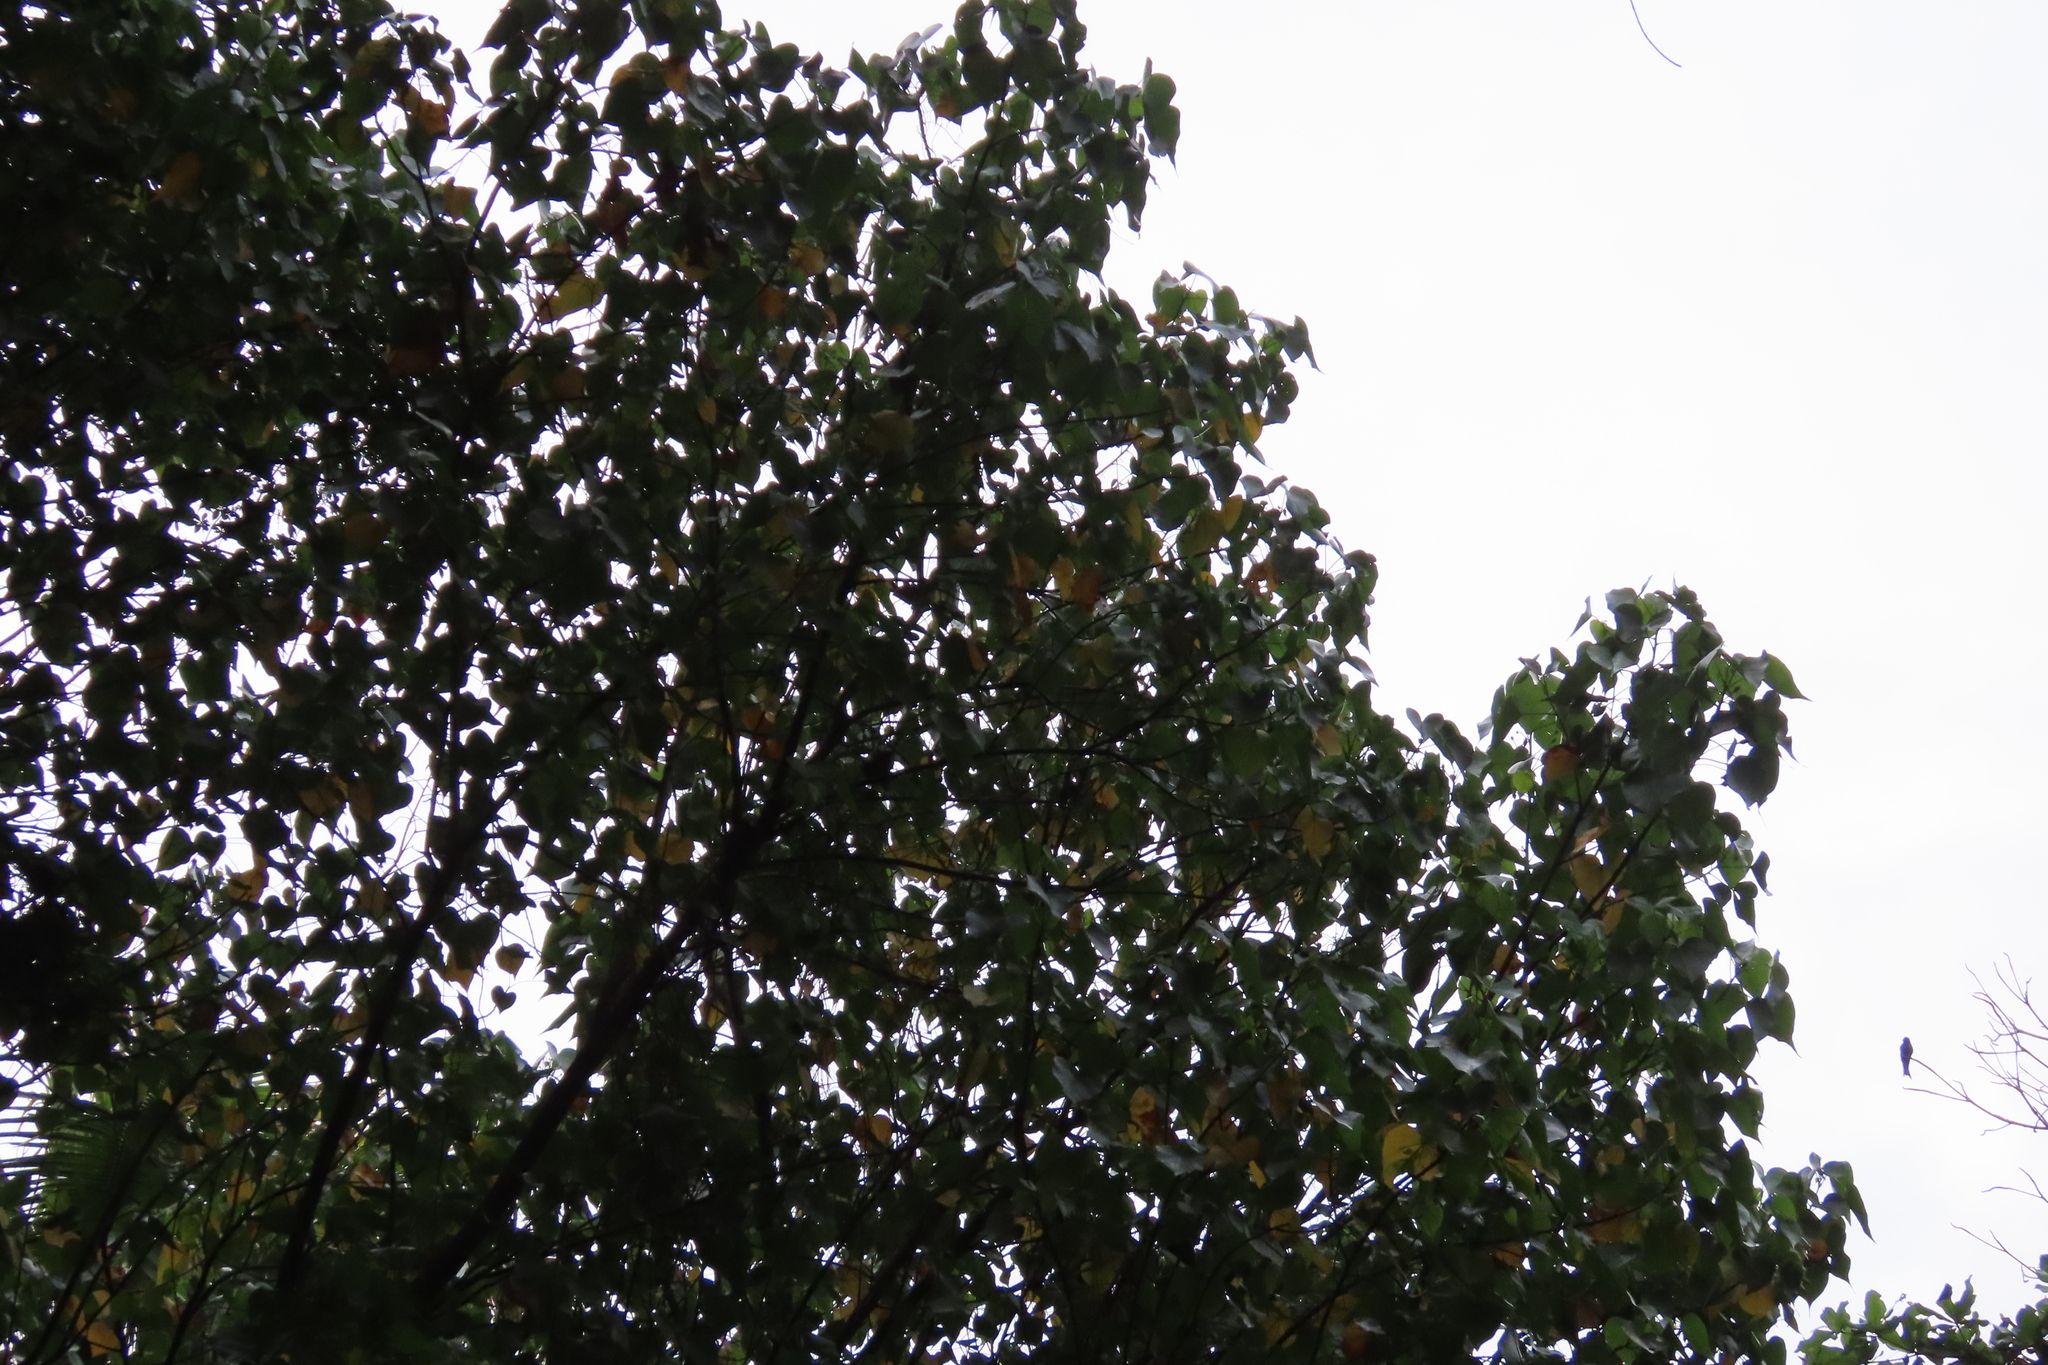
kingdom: Plantae
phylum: Tracheophyta
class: Magnoliopsida
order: Malvales
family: Malvaceae
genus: Thespesia
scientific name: Thespesia populnea
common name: Seaside mahoe
